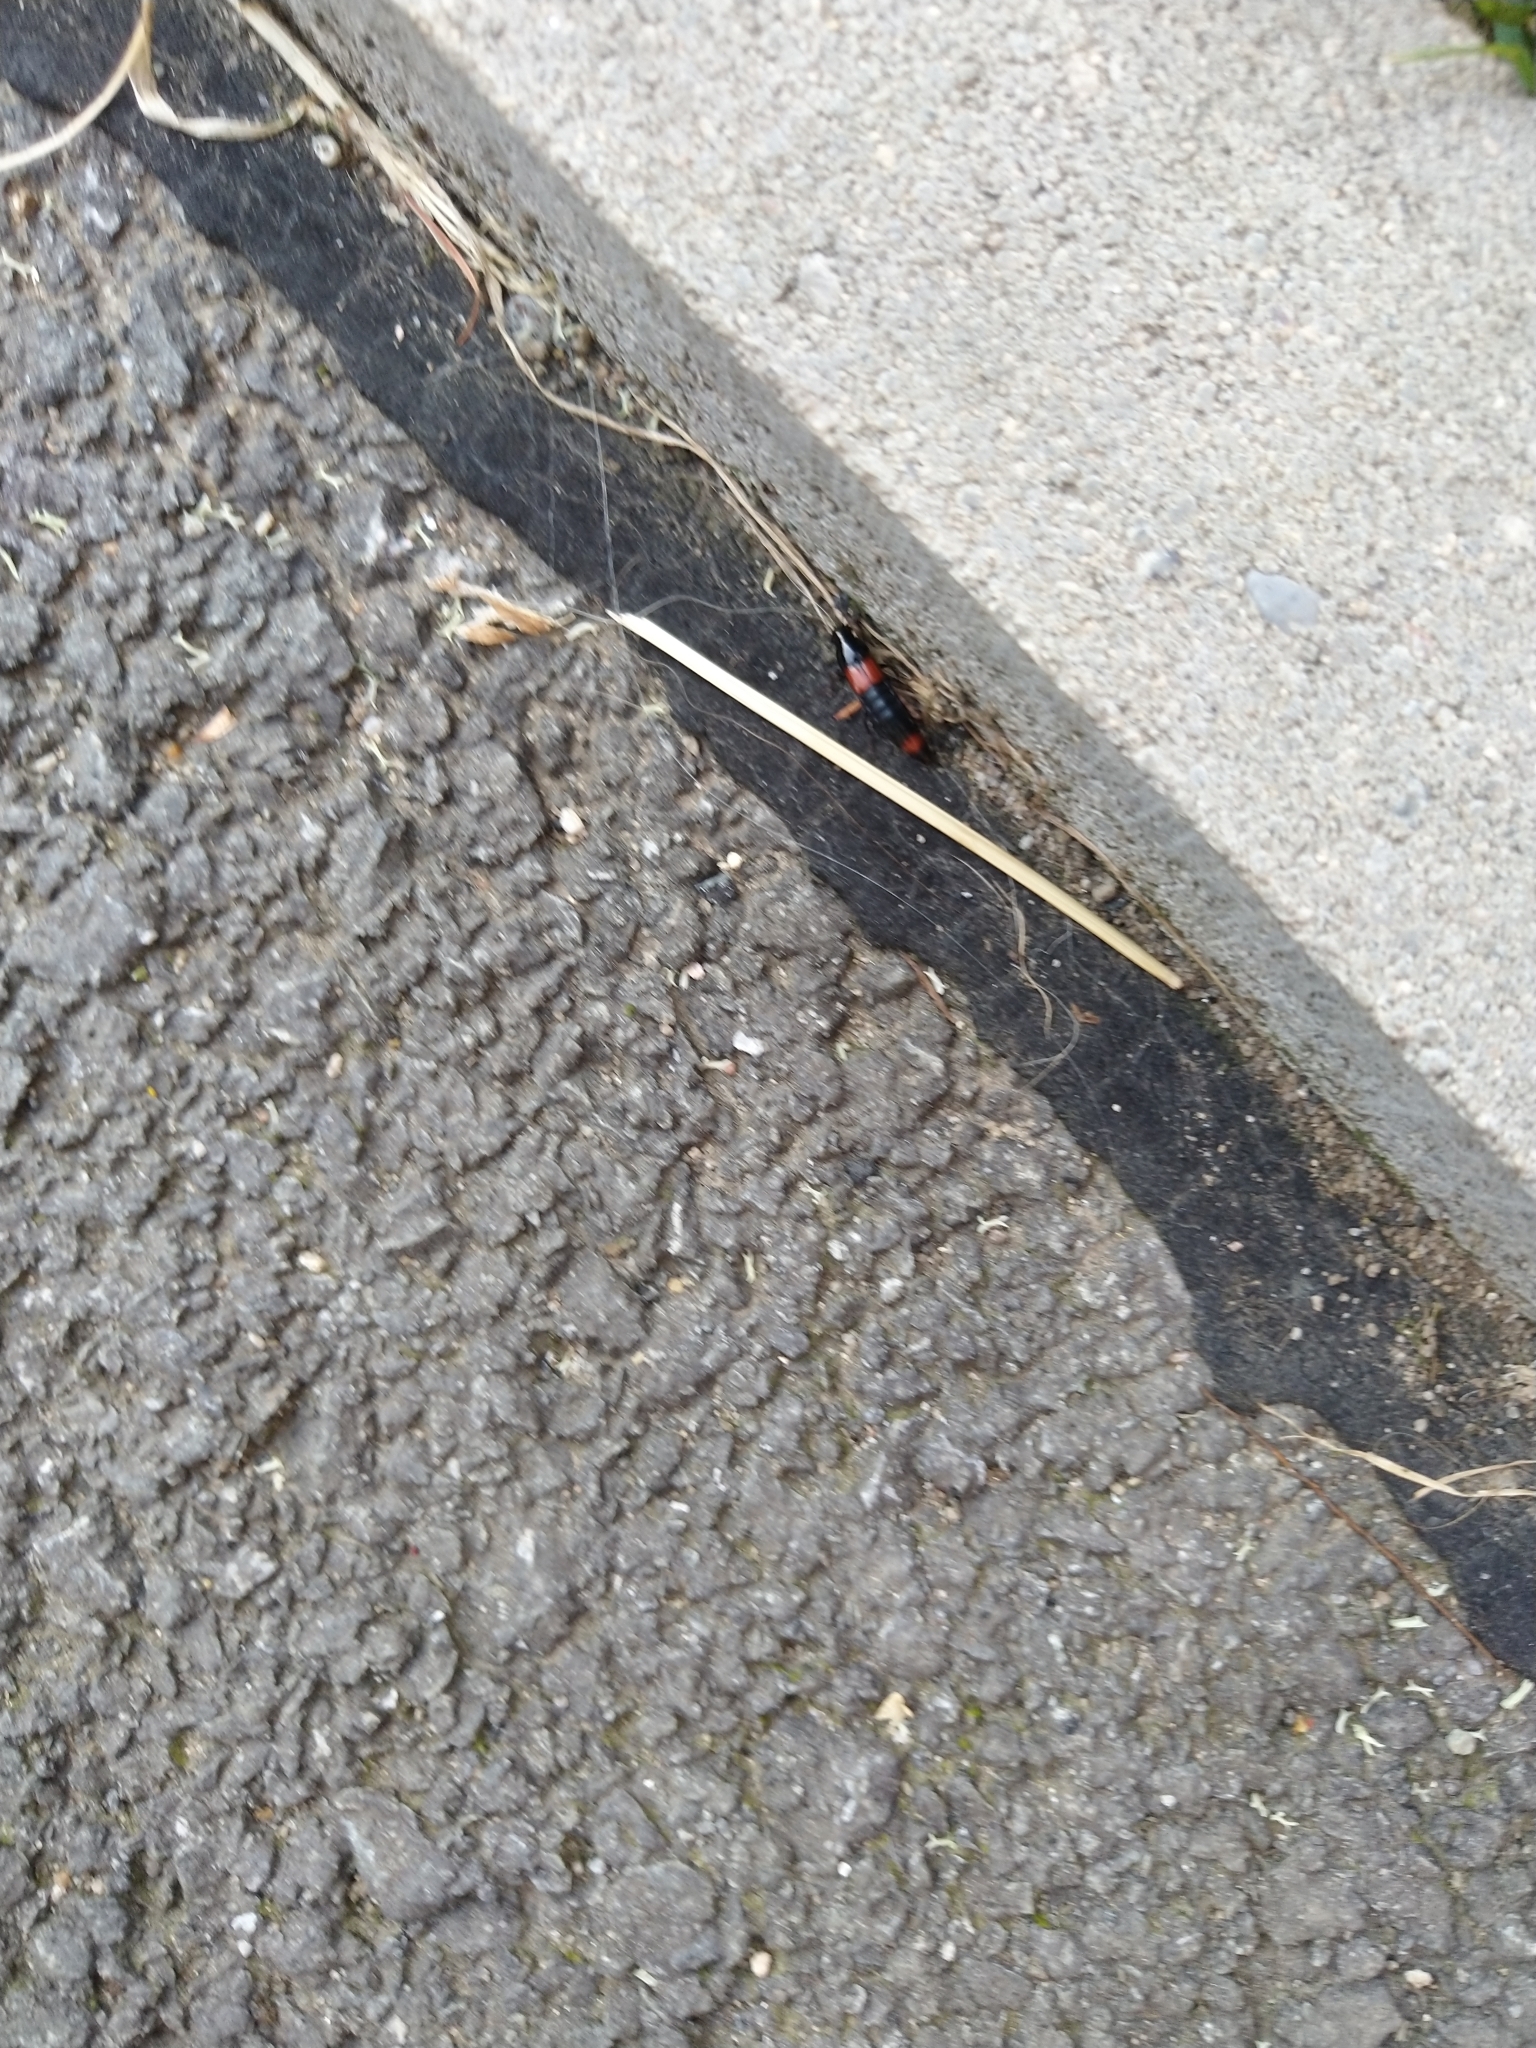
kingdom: Animalia
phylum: Arthropoda
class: Insecta
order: Coleoptera
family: Staphylinidae
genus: Astrapaeus
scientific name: Astrapaeus ulmi
